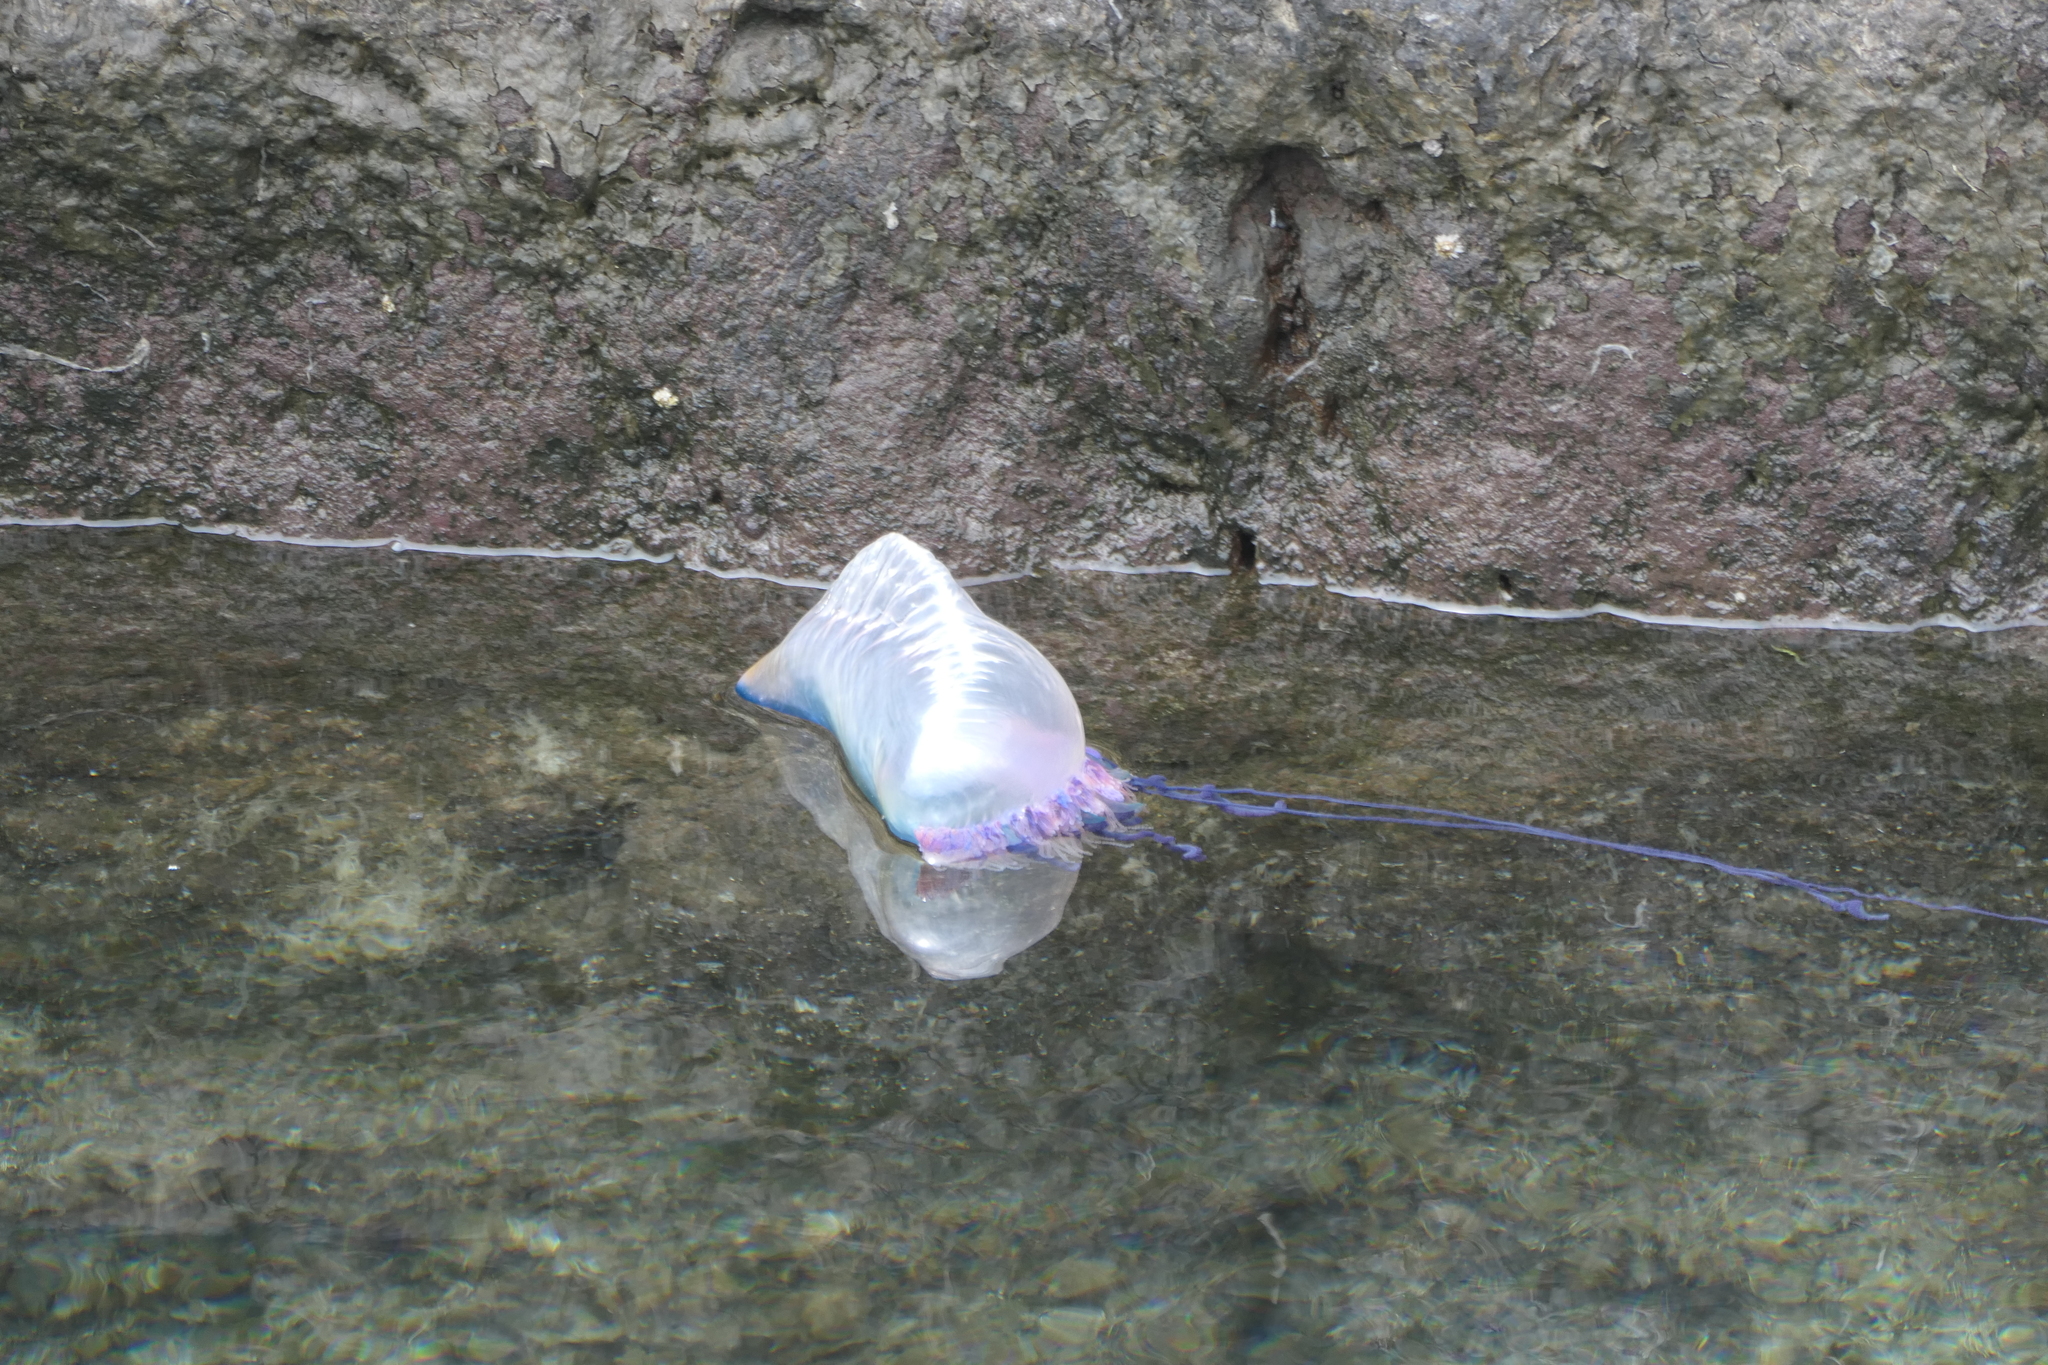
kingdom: Animalia
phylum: Cnidaria
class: Hydrozoa
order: Siphonophorae
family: Physaliidae
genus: Physalia
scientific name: Physalia physalis
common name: Portuguese man-of-war
